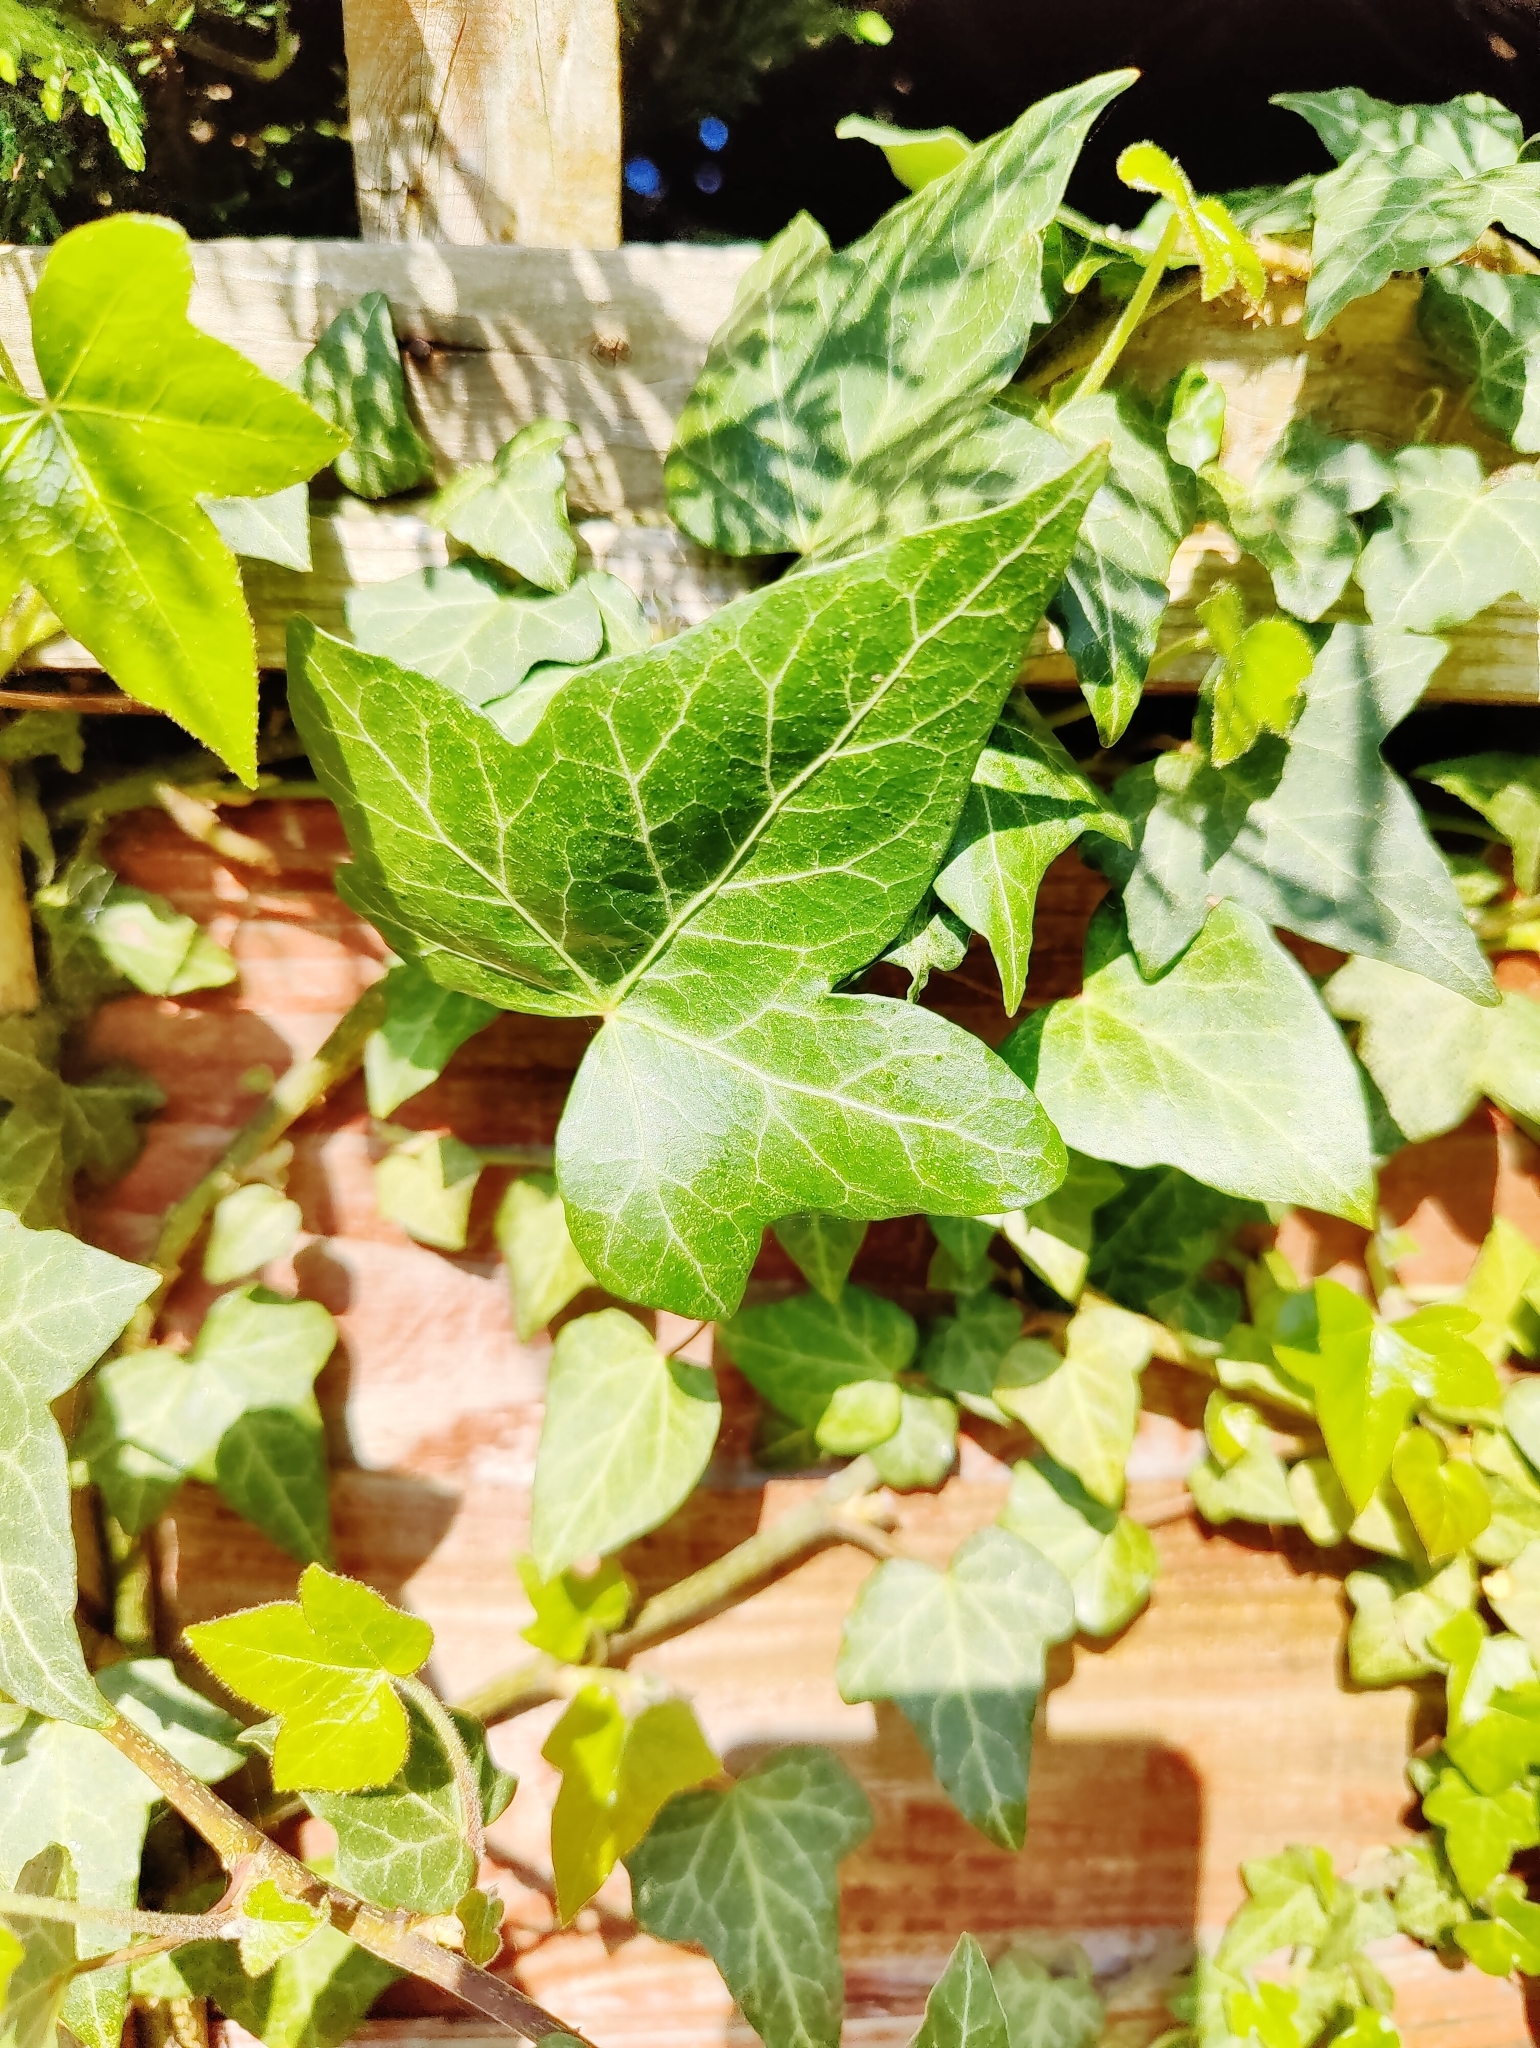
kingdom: Plantae
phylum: Tracheophyta
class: Magnoliopsida
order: Apiales
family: Araliaceae
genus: Hedera
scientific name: Hedera helix
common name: Ivy
